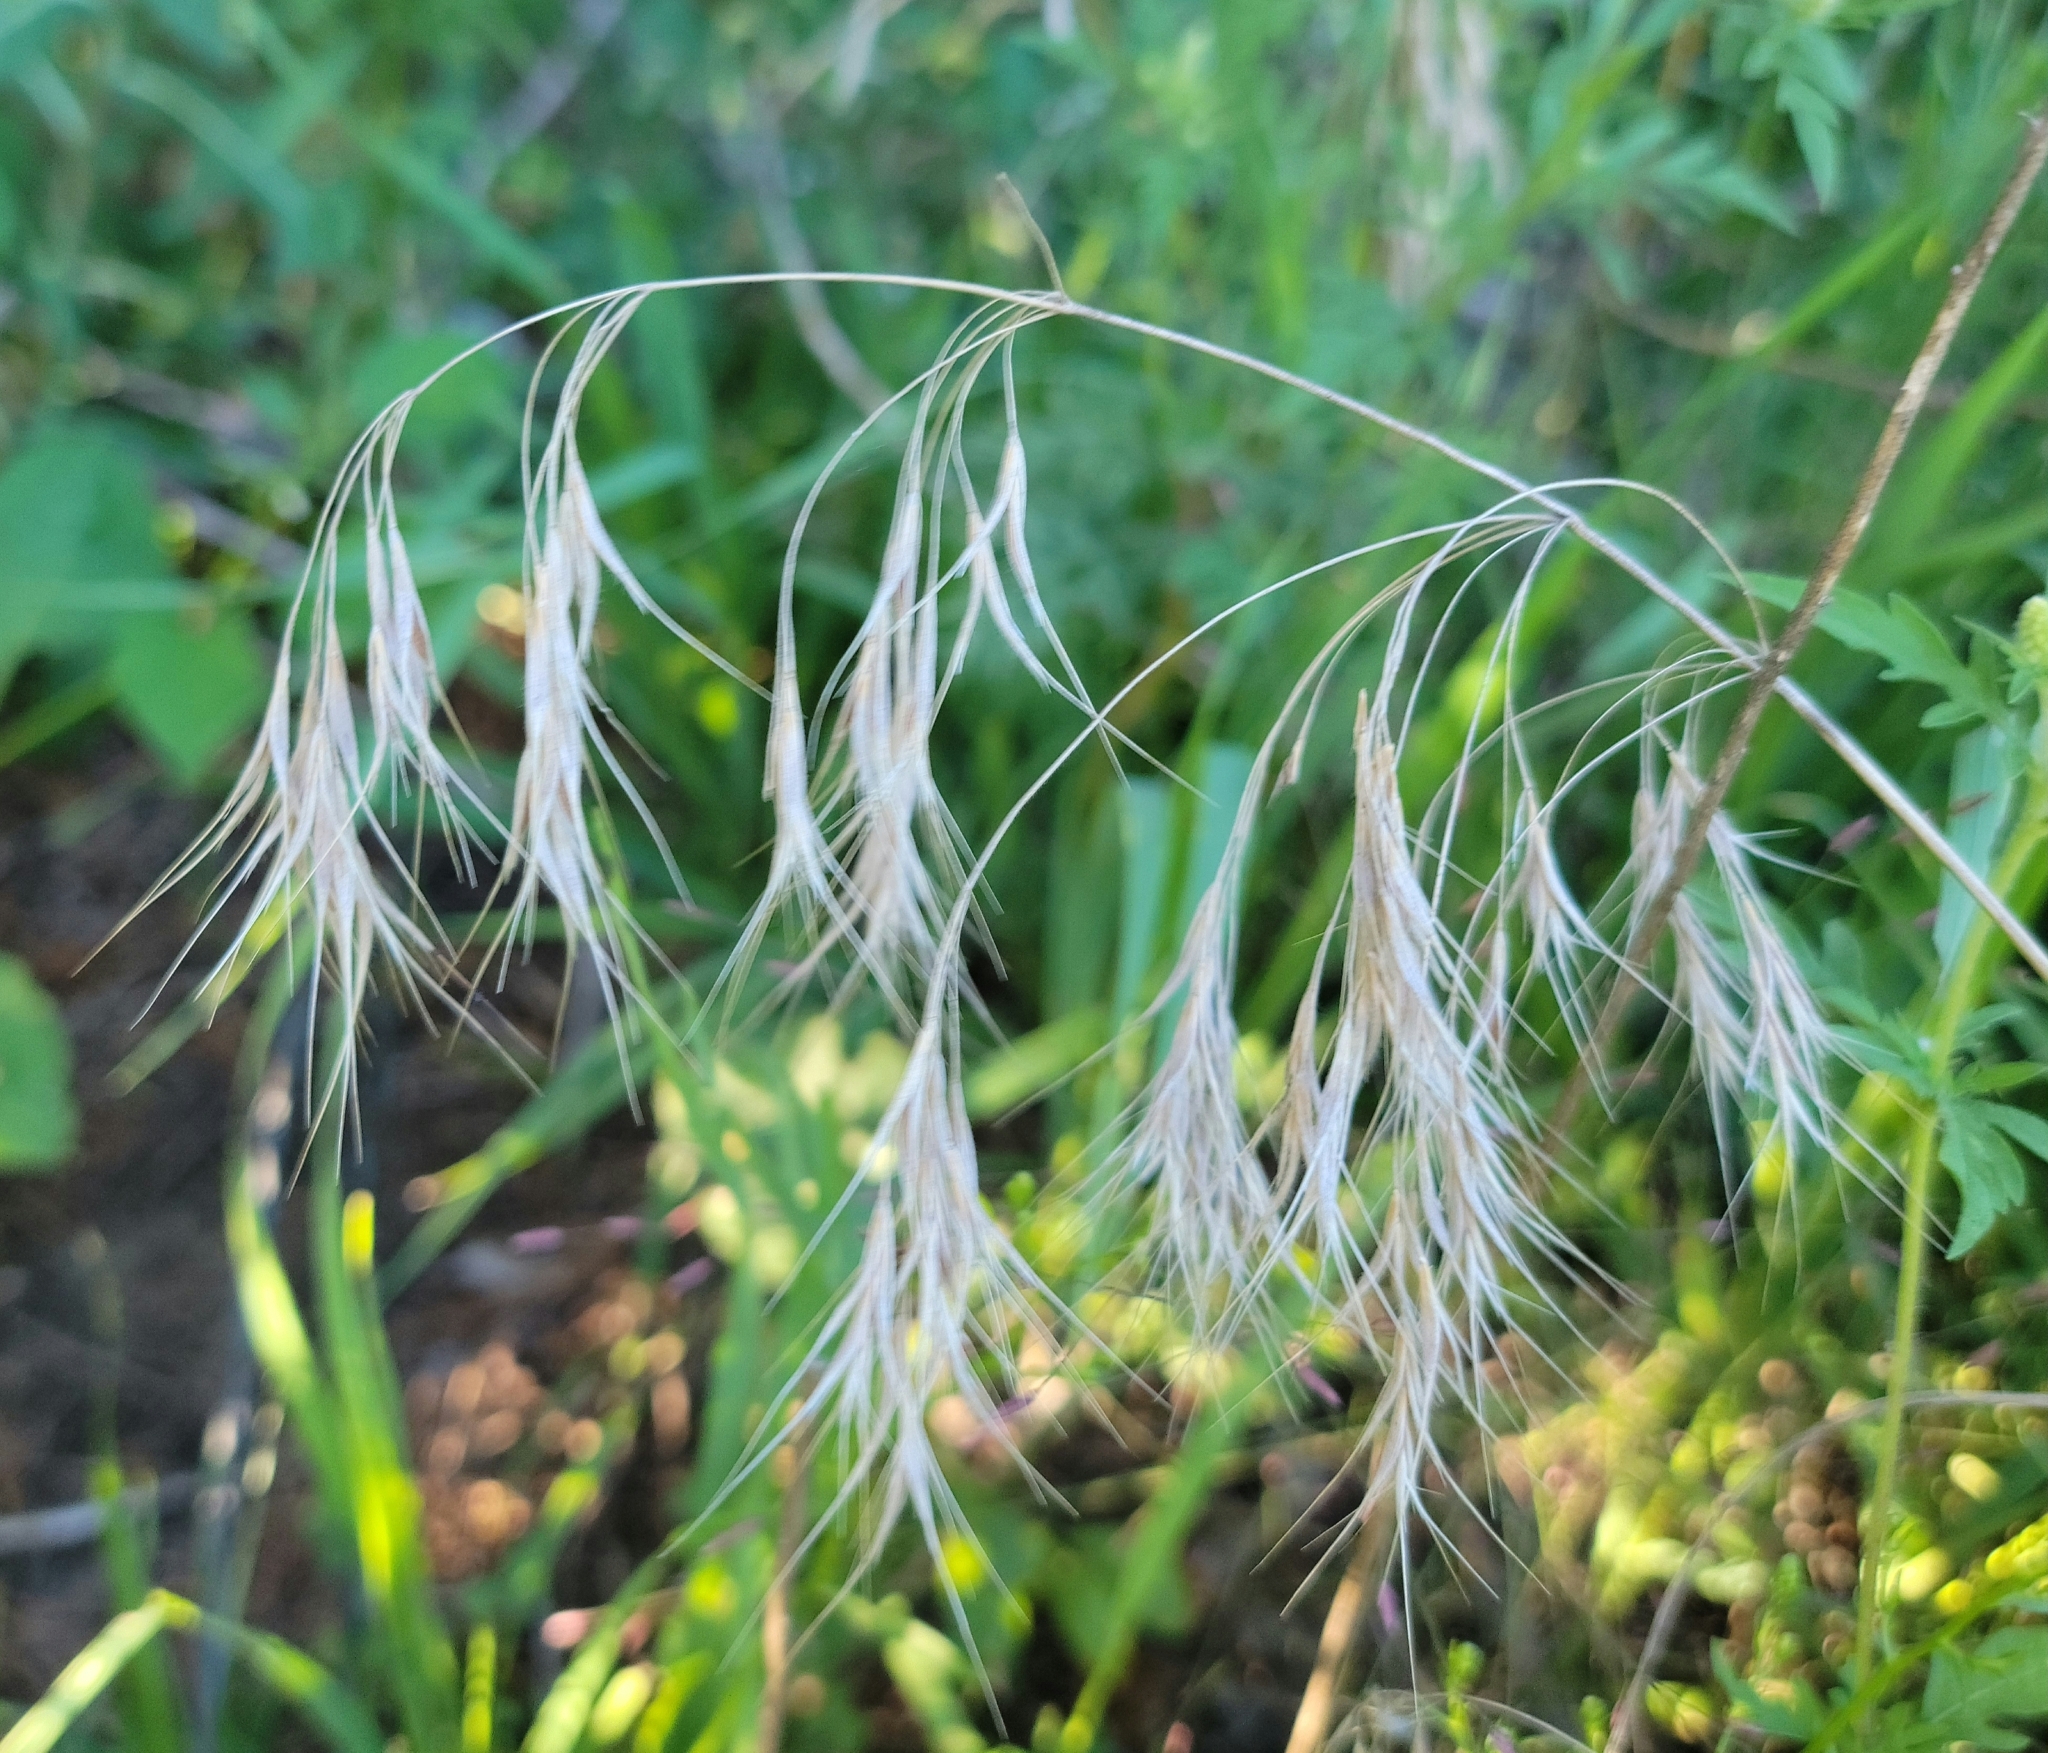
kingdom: Plantae
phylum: Tracheophyta
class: Liliopsida
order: Poales
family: Poaceae
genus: Bromus
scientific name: Bromus tectorum
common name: Cheatgrass
